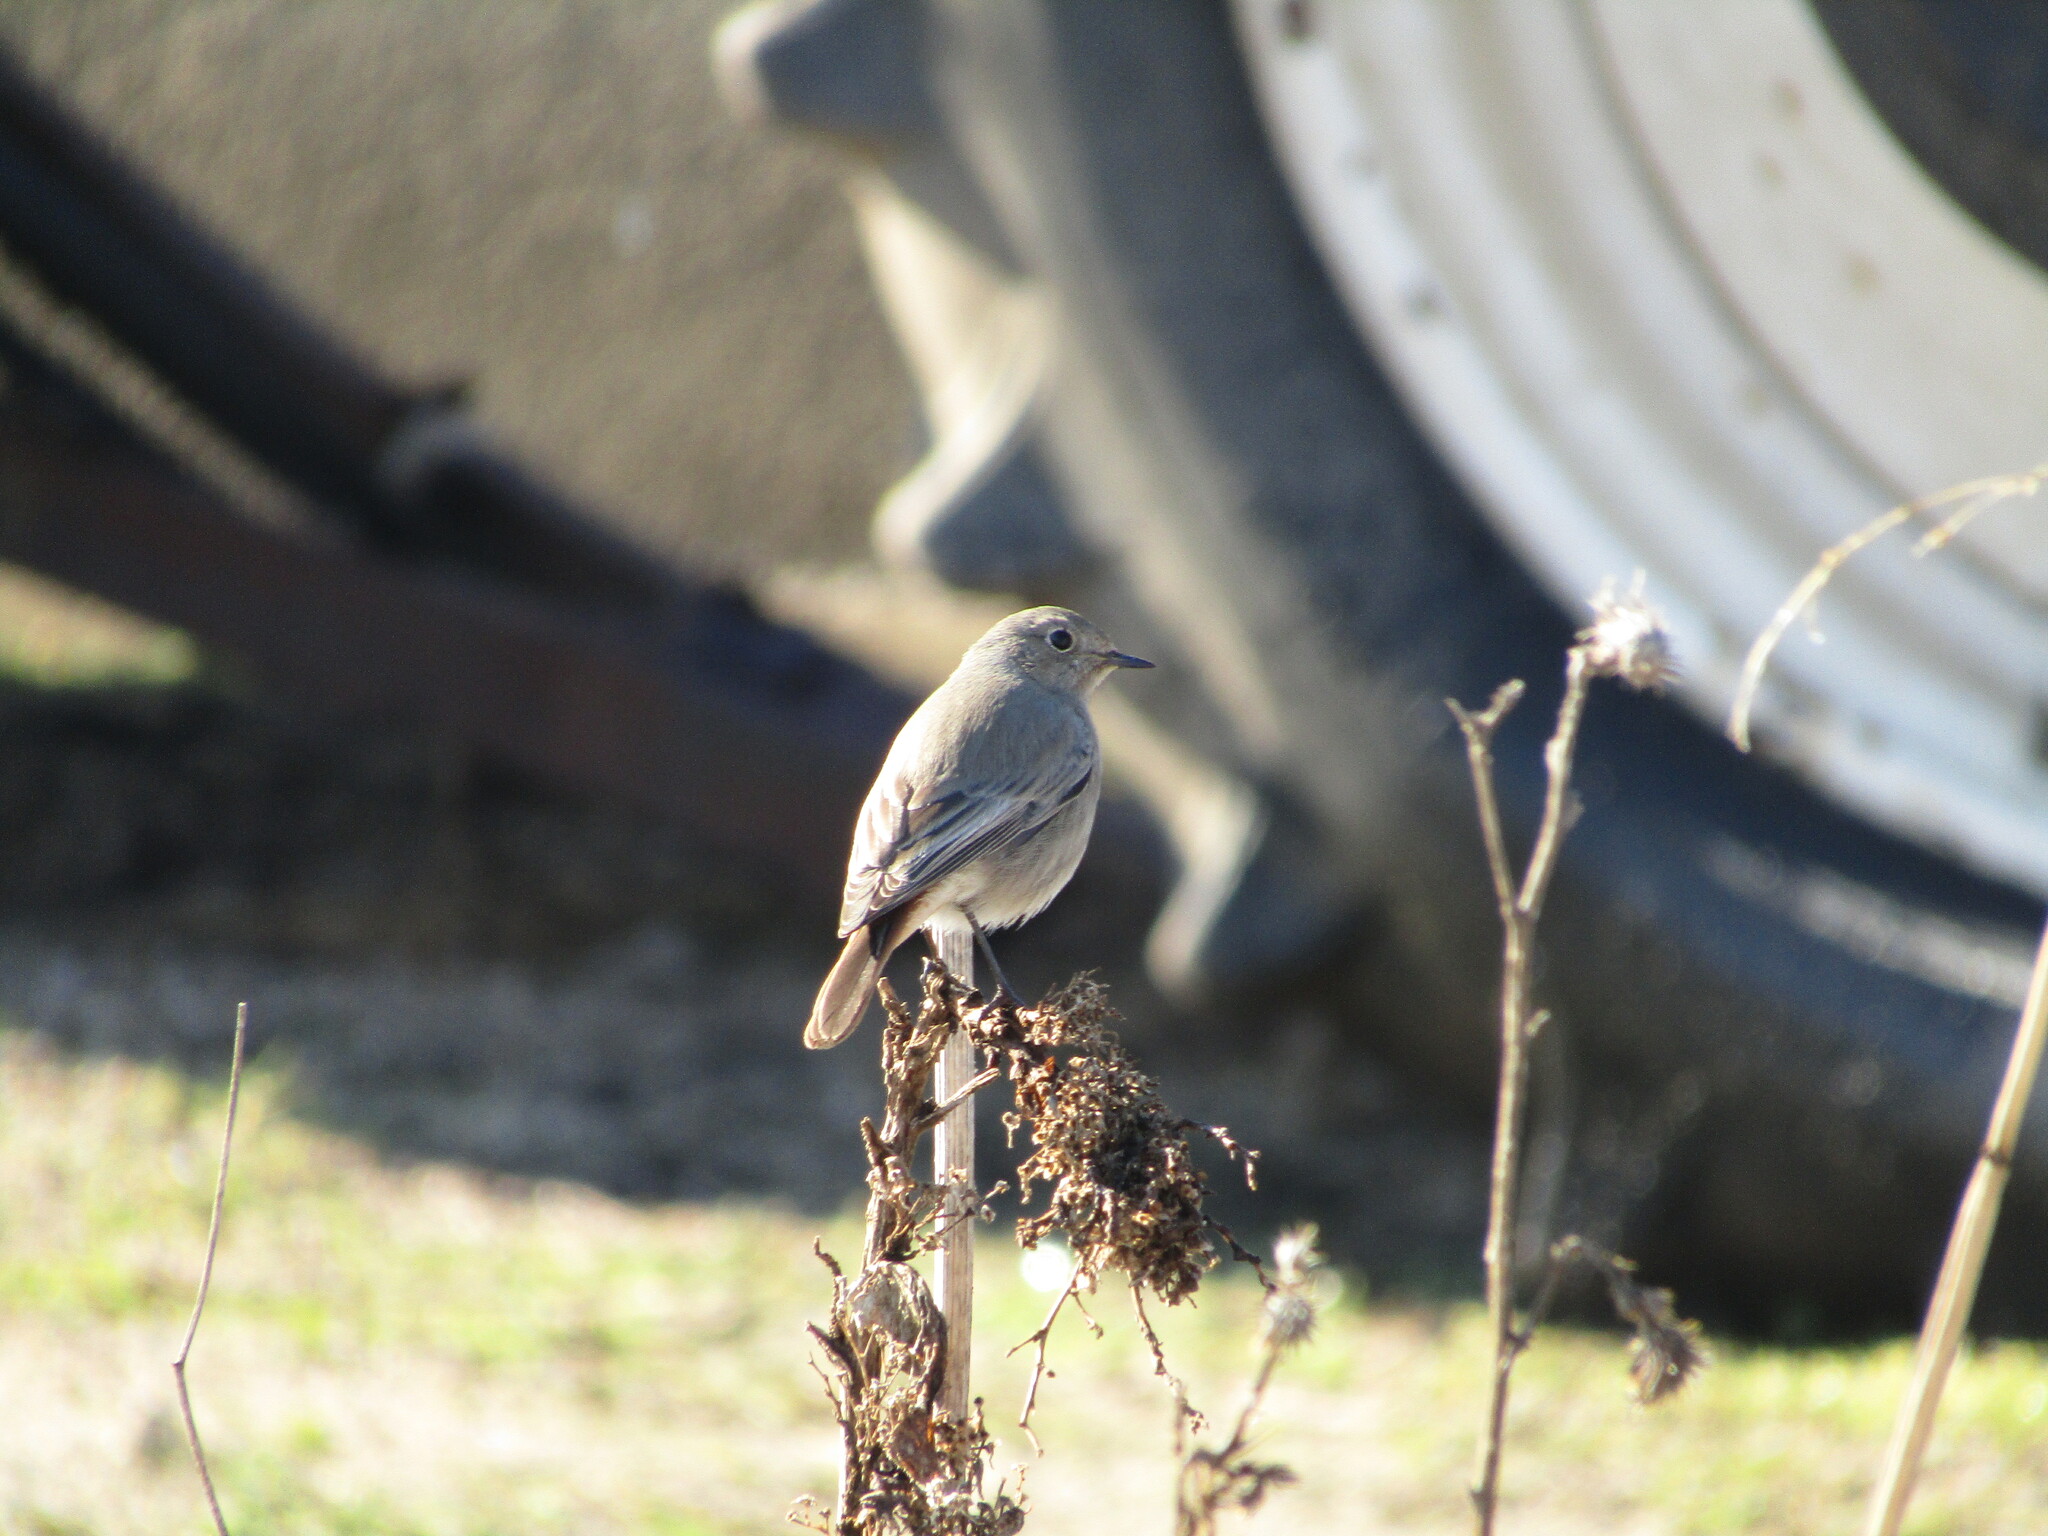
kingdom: Animalia
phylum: Chordata
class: Aves
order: Passeriformes
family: Muscicapidae
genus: Phoenicurus
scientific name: Phoenicurus ochruros
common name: Black redstart
